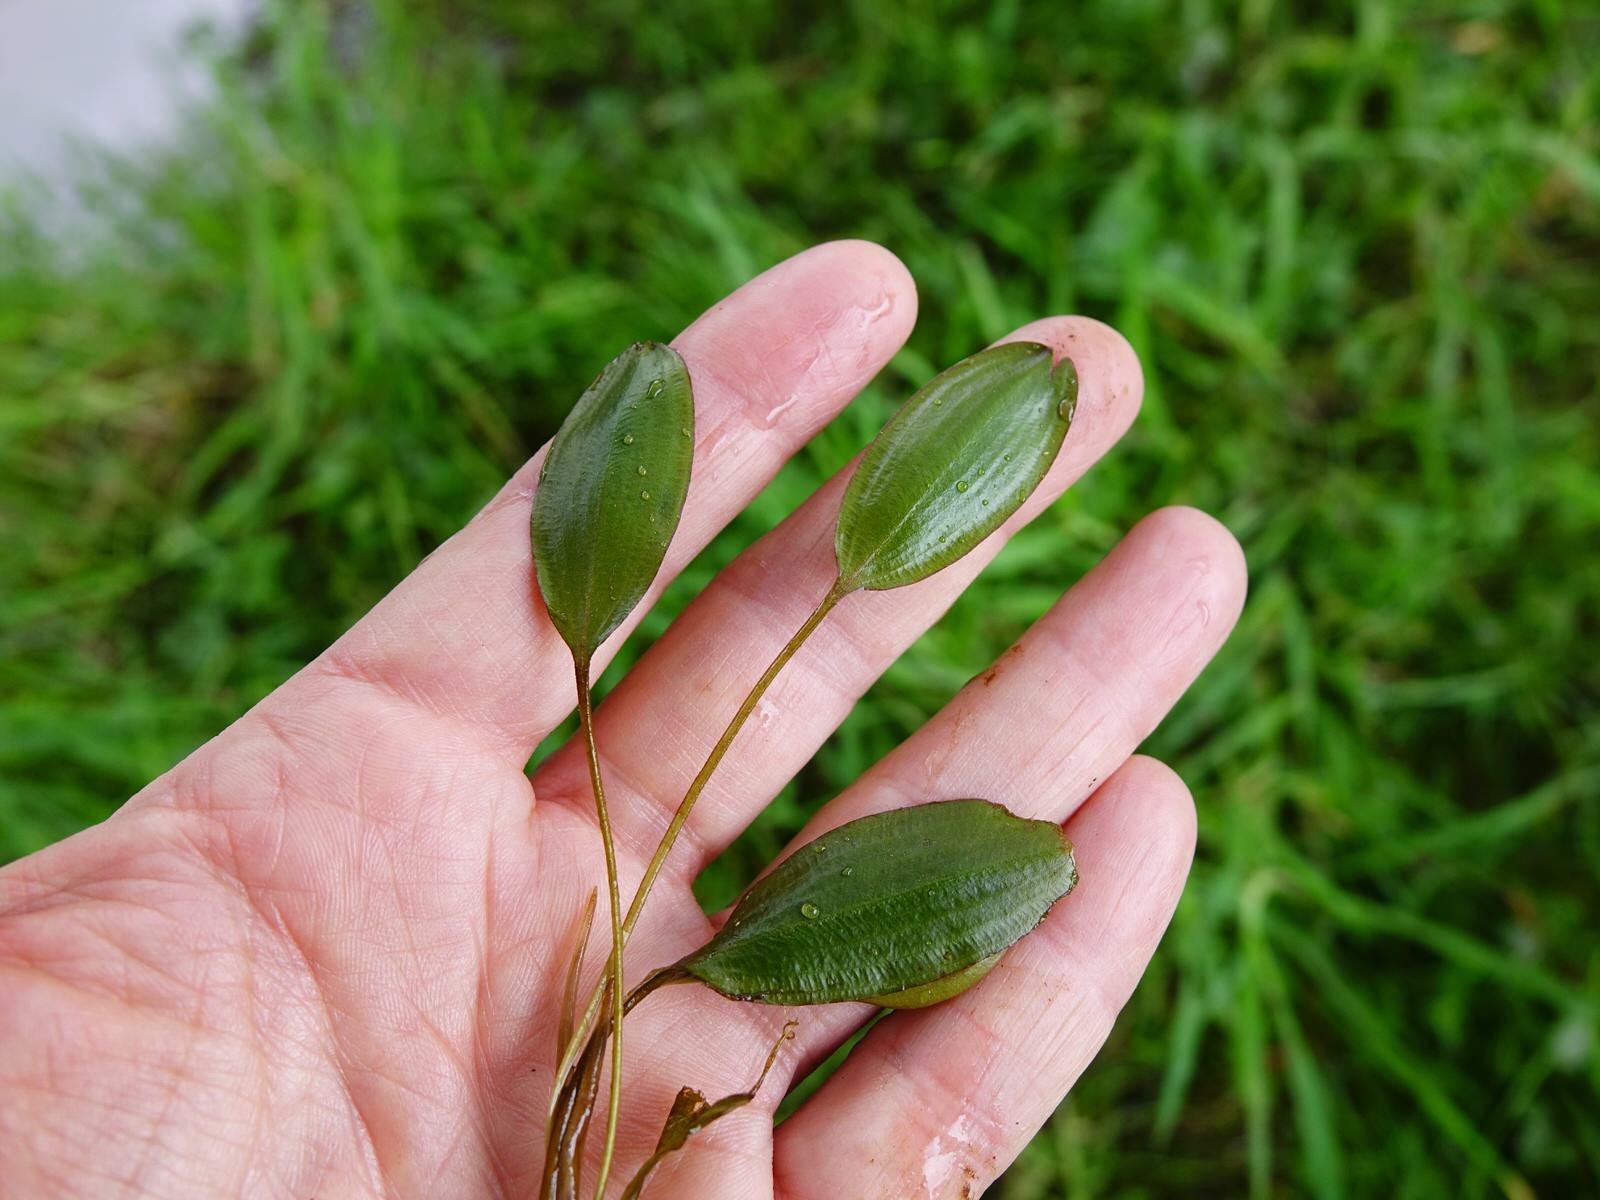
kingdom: Plantae
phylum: Tracheophyta
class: Liliopsida
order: Alismatales
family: Potamogetonaceae
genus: Potamogeton
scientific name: Potamogeton cheesemanii
